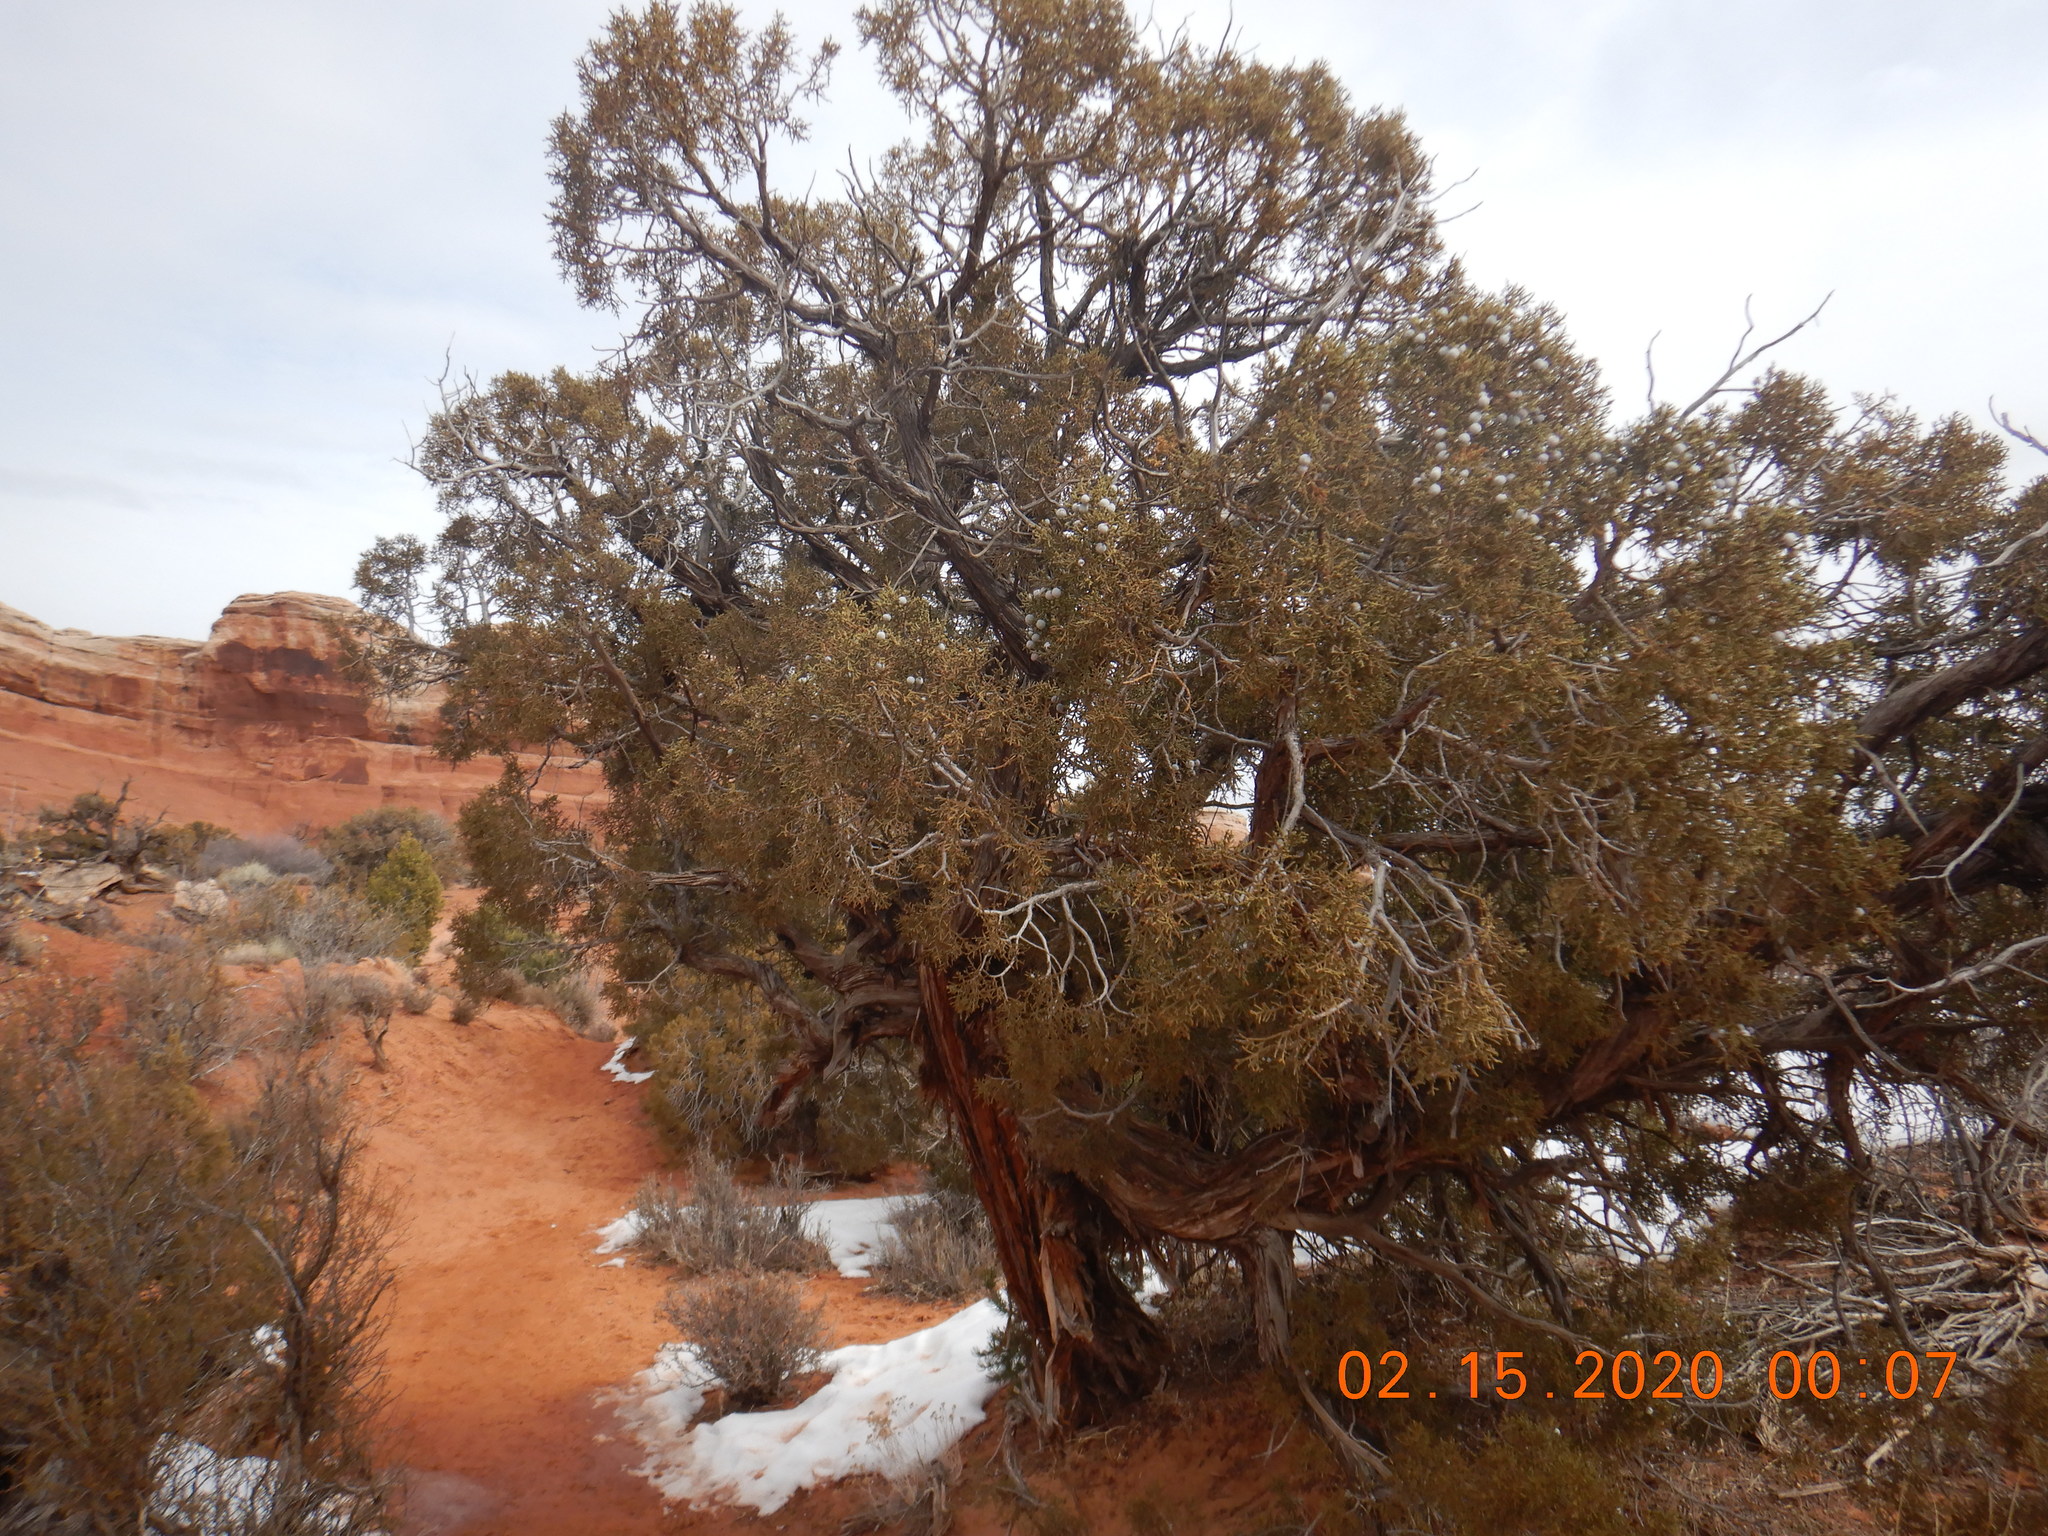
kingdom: Plantae
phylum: Tracheophyta
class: Pinopsida
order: Pinales
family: Cupressaceae
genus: Juniperus
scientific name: Juniperus osteosperma
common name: Utah juniper
